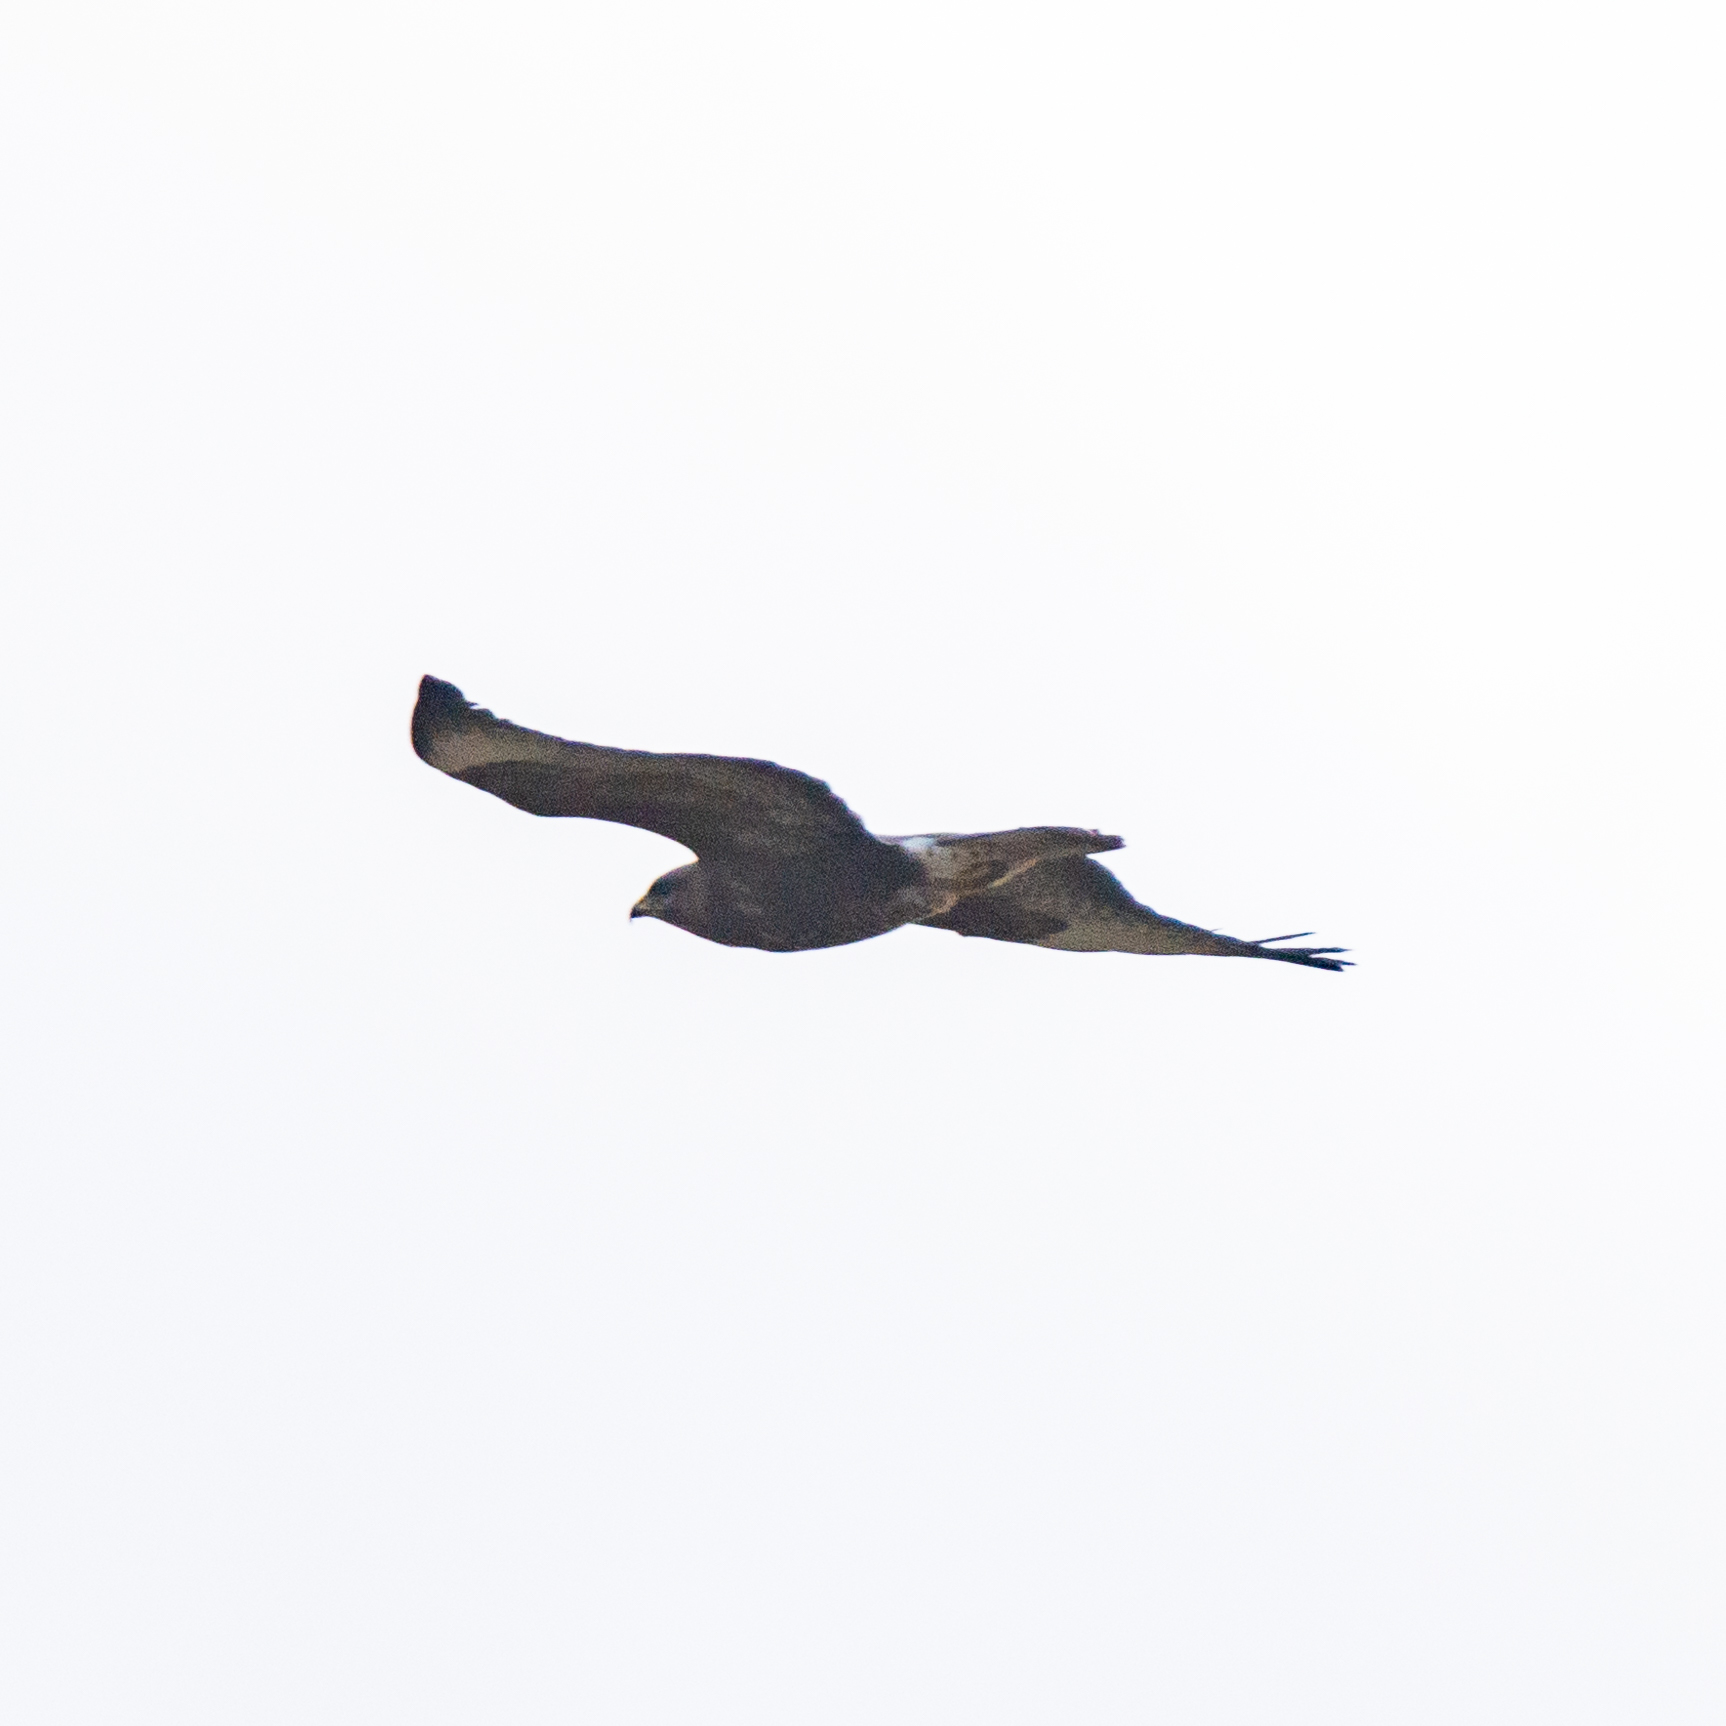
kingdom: Animalia
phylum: Chordata
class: Aves
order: Accipitriformes
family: Accipitridae
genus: Buteo
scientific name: Buteo buteo
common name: Common buzzard
